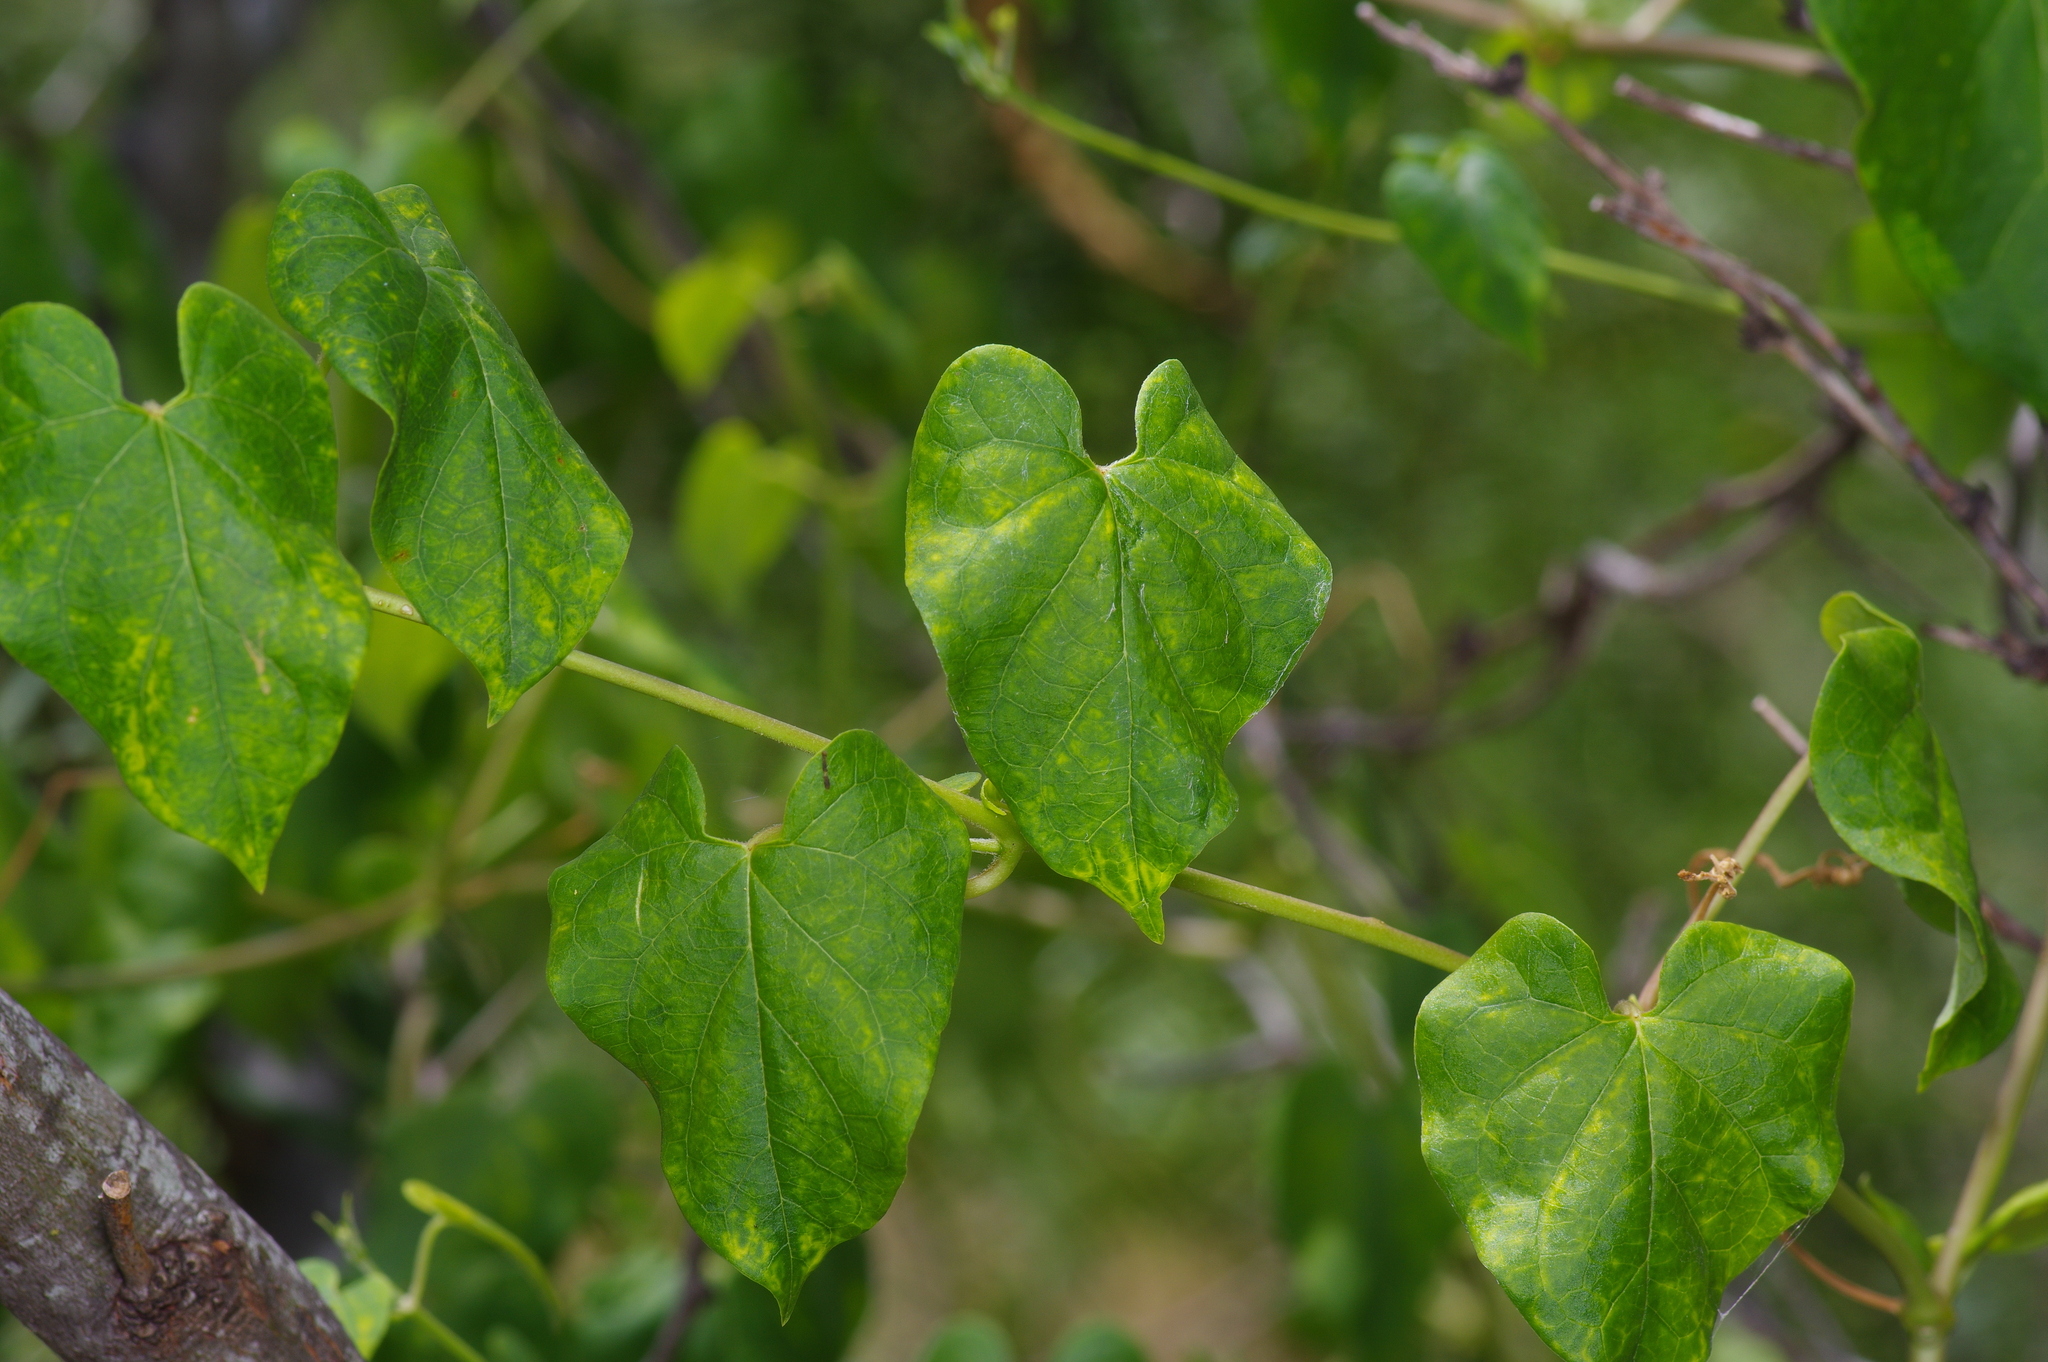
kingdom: Plantae
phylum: Tracheophyta
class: Magnoliopsida
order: Gentianales
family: Apocynaceae
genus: Cynanchum
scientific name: Cynanchum racemosum
